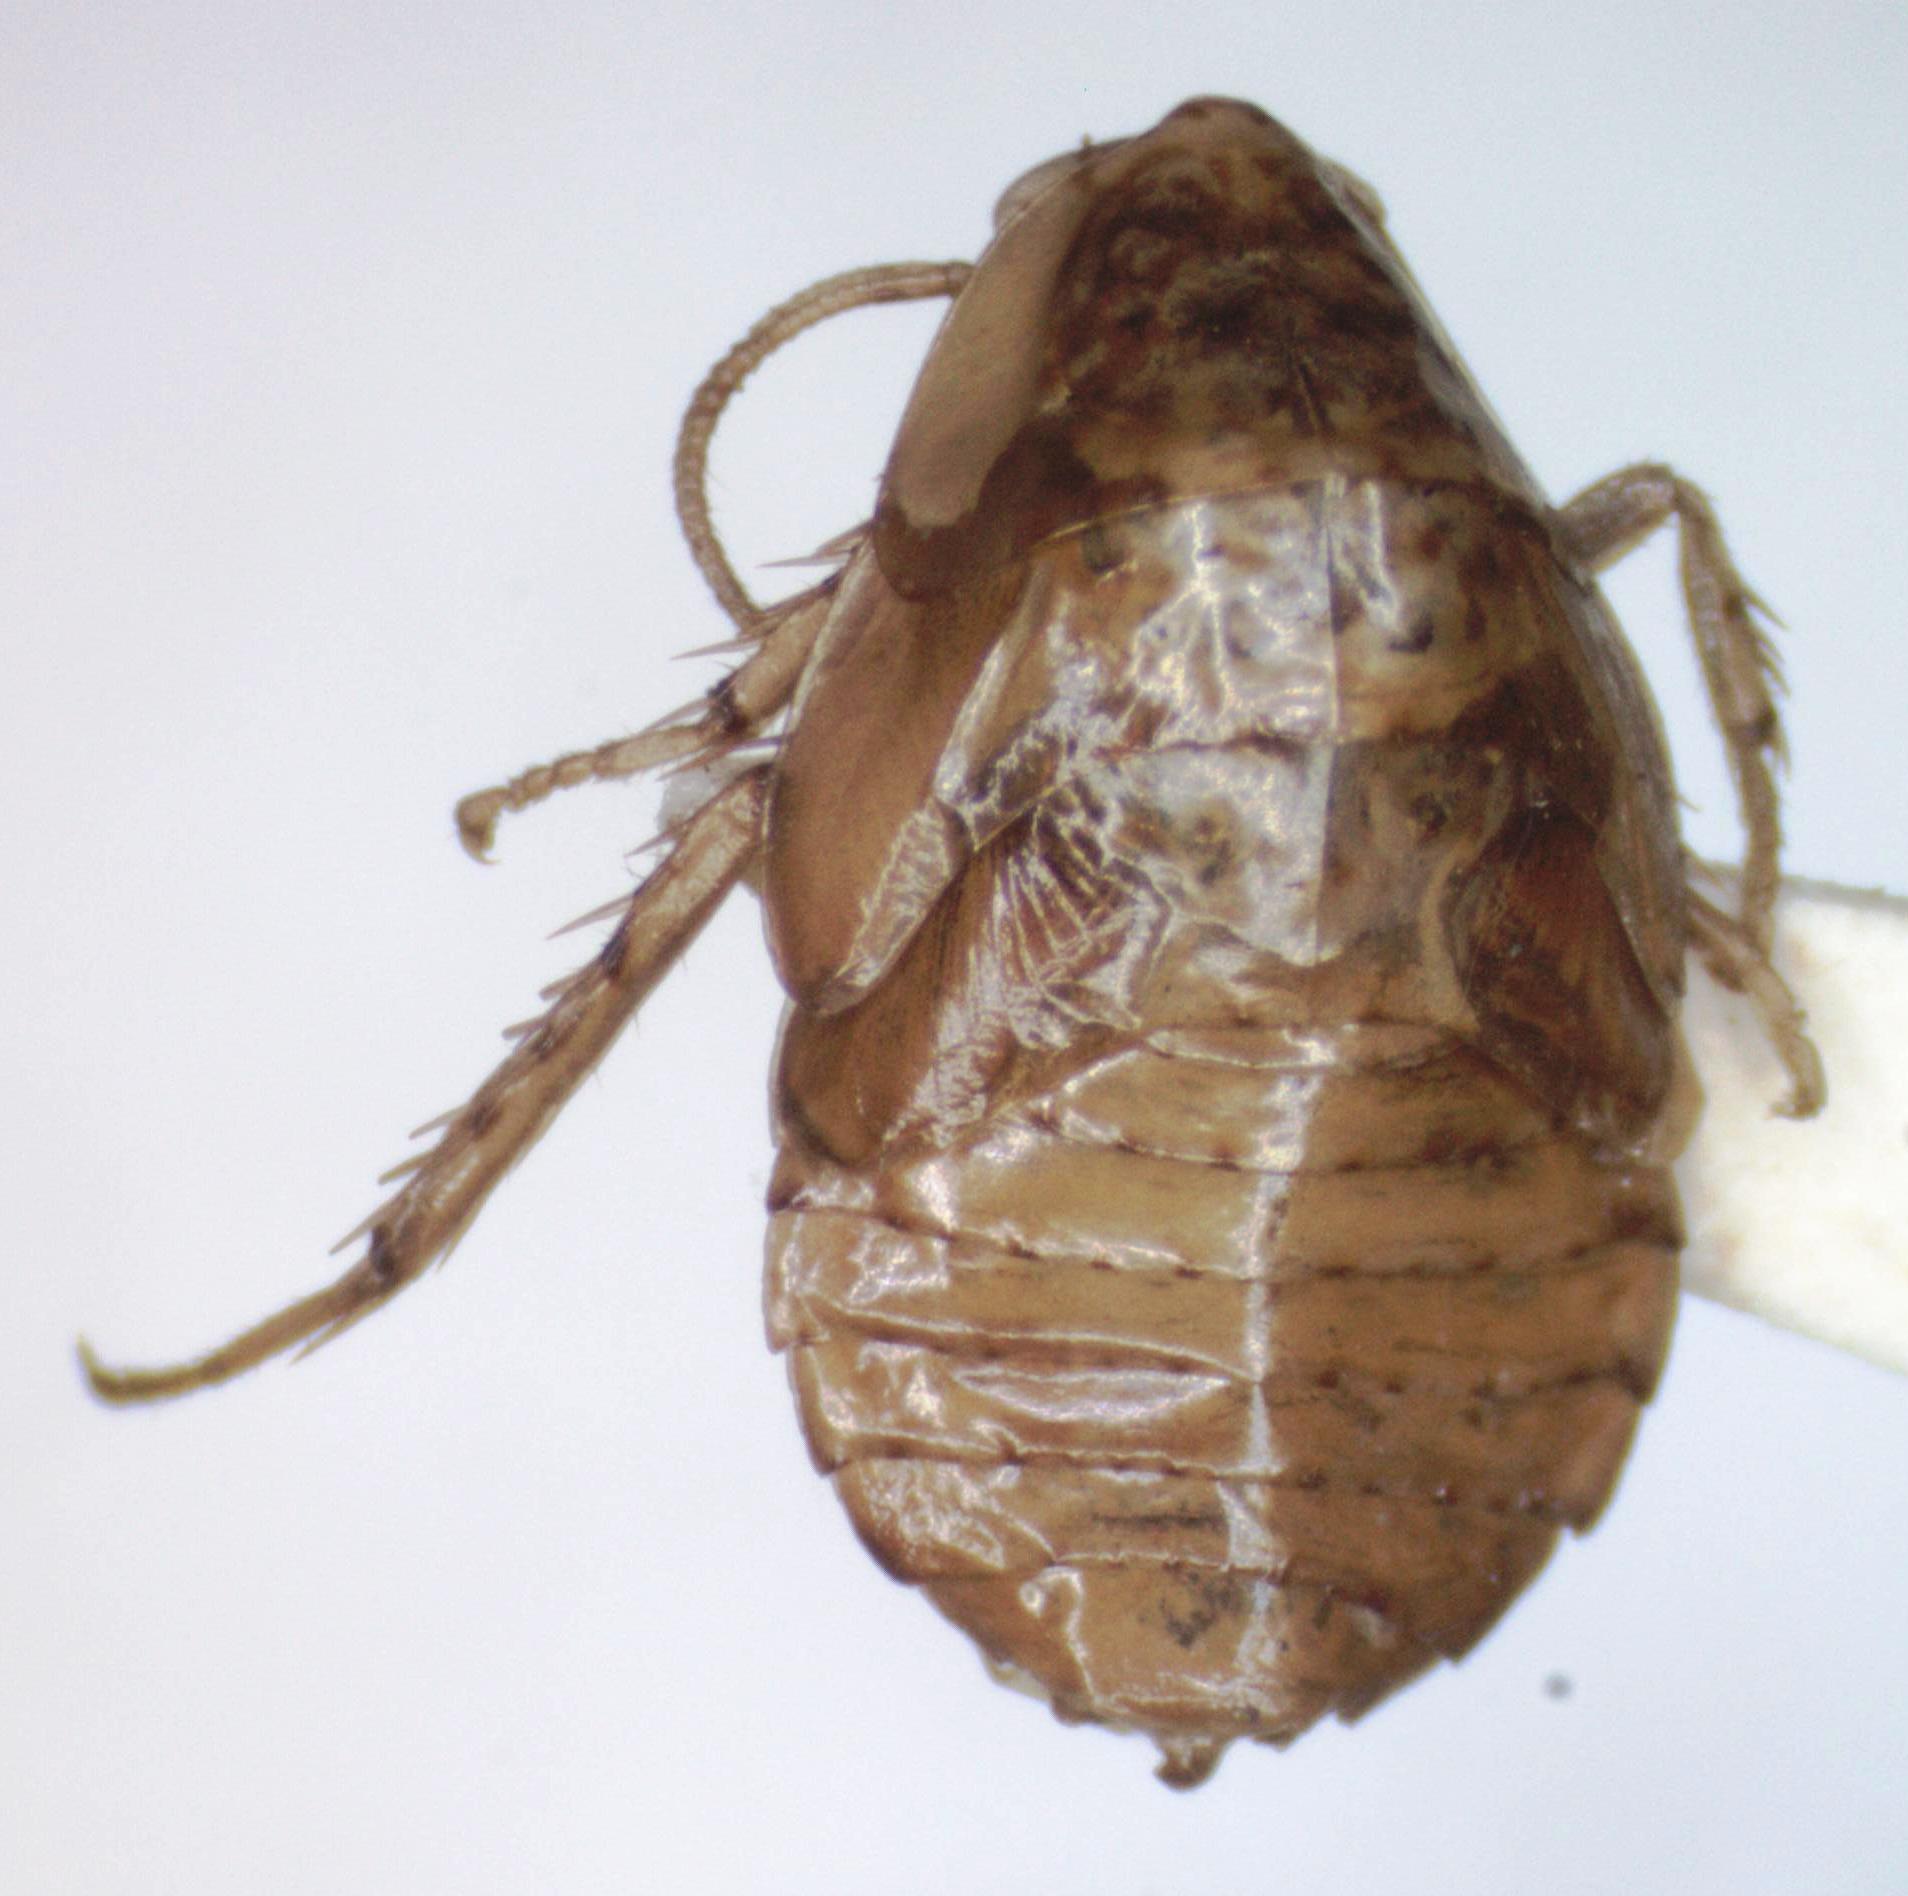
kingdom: Animalia
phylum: Arthropoda
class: Insecta
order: Blattodea
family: Ectobiidae
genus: Chorisoneura
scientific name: Chorisoneura translucida
